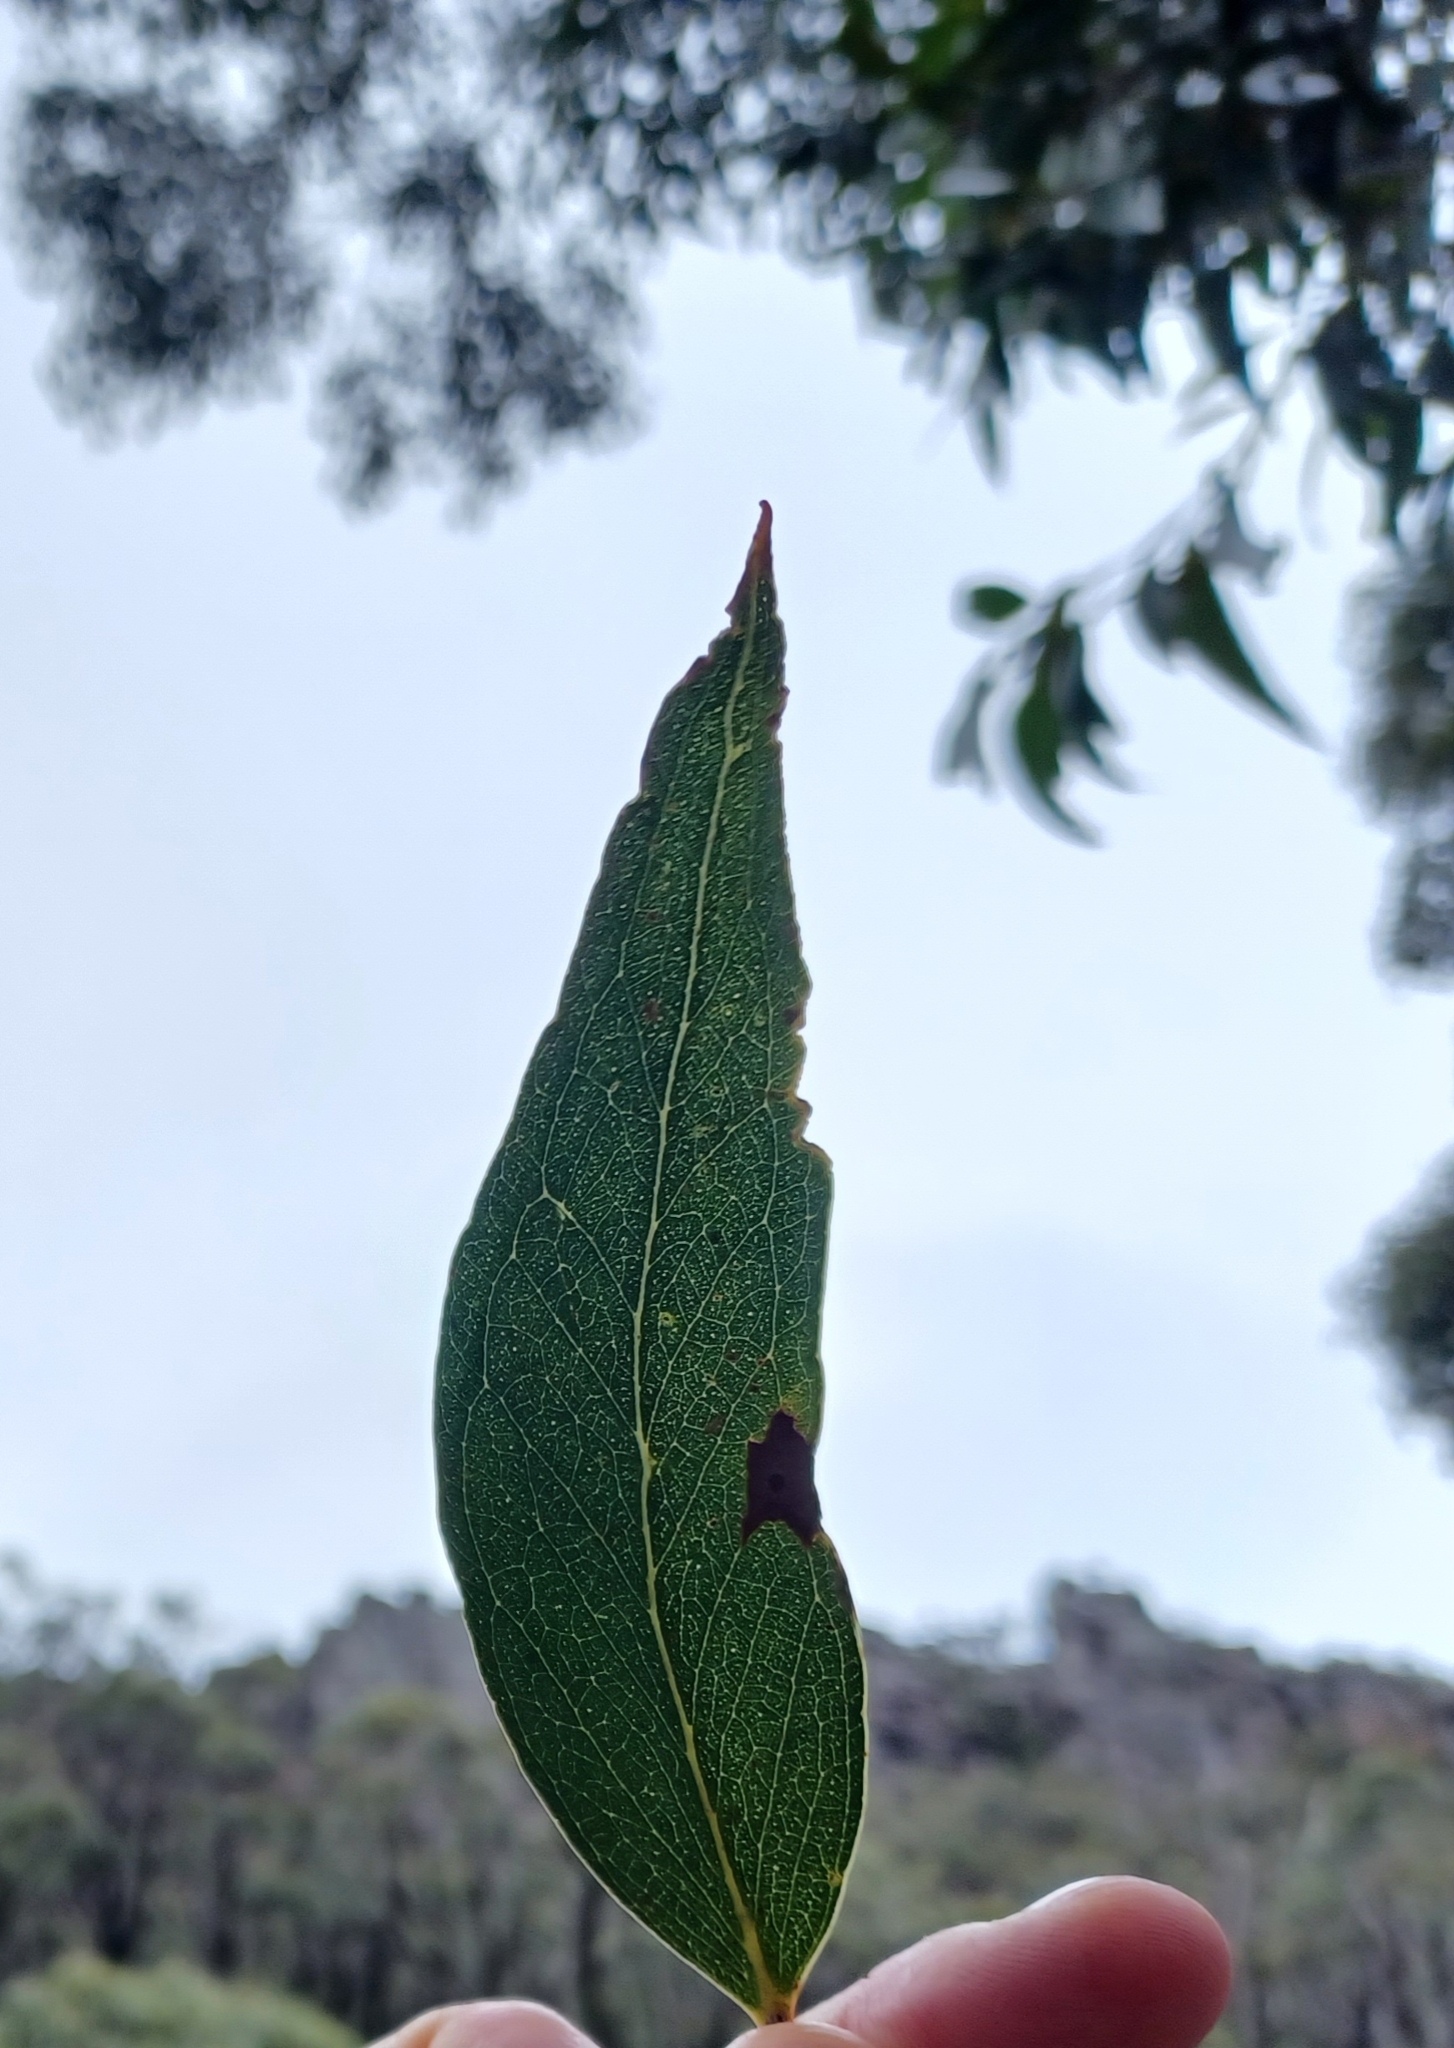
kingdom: Plantae
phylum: Tracheophyta
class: Magnoliopsida
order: Myrtales
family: Myrtaceae
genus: Eucalyptus
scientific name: Eucalyptus obliqua
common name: Messmate stringybark
